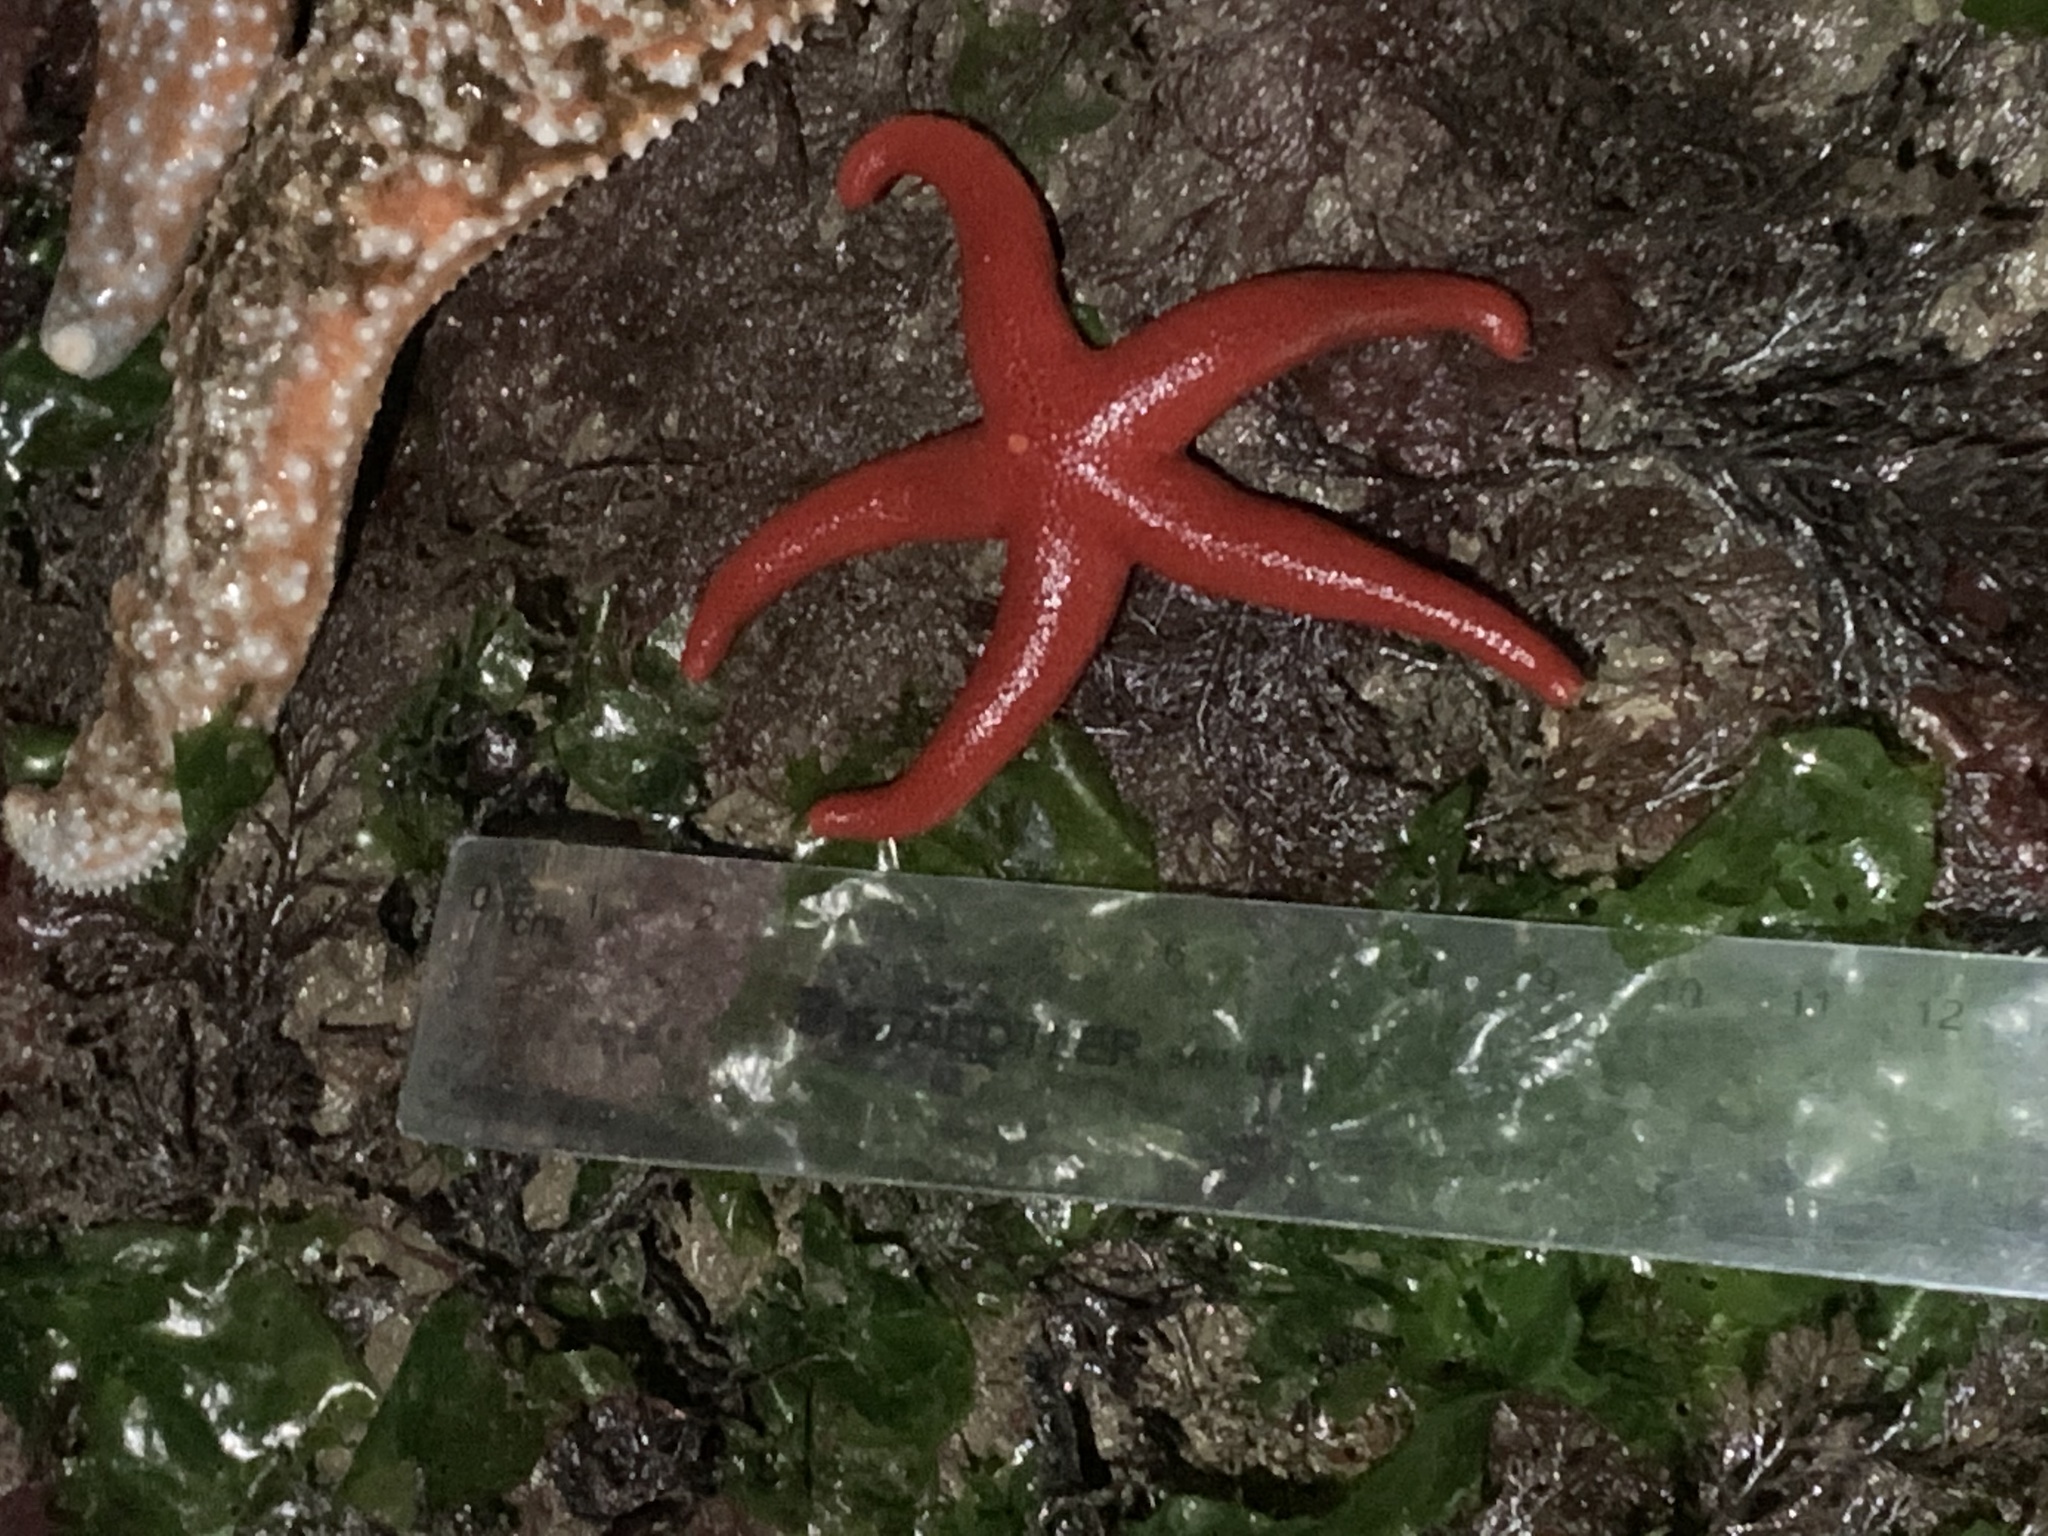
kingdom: Animalia
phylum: Echinodermata
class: Asteroidea
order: Spinulosida
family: Echinasteridae
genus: Henricia
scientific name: Henricia leviuscula
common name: Pacific blood star
